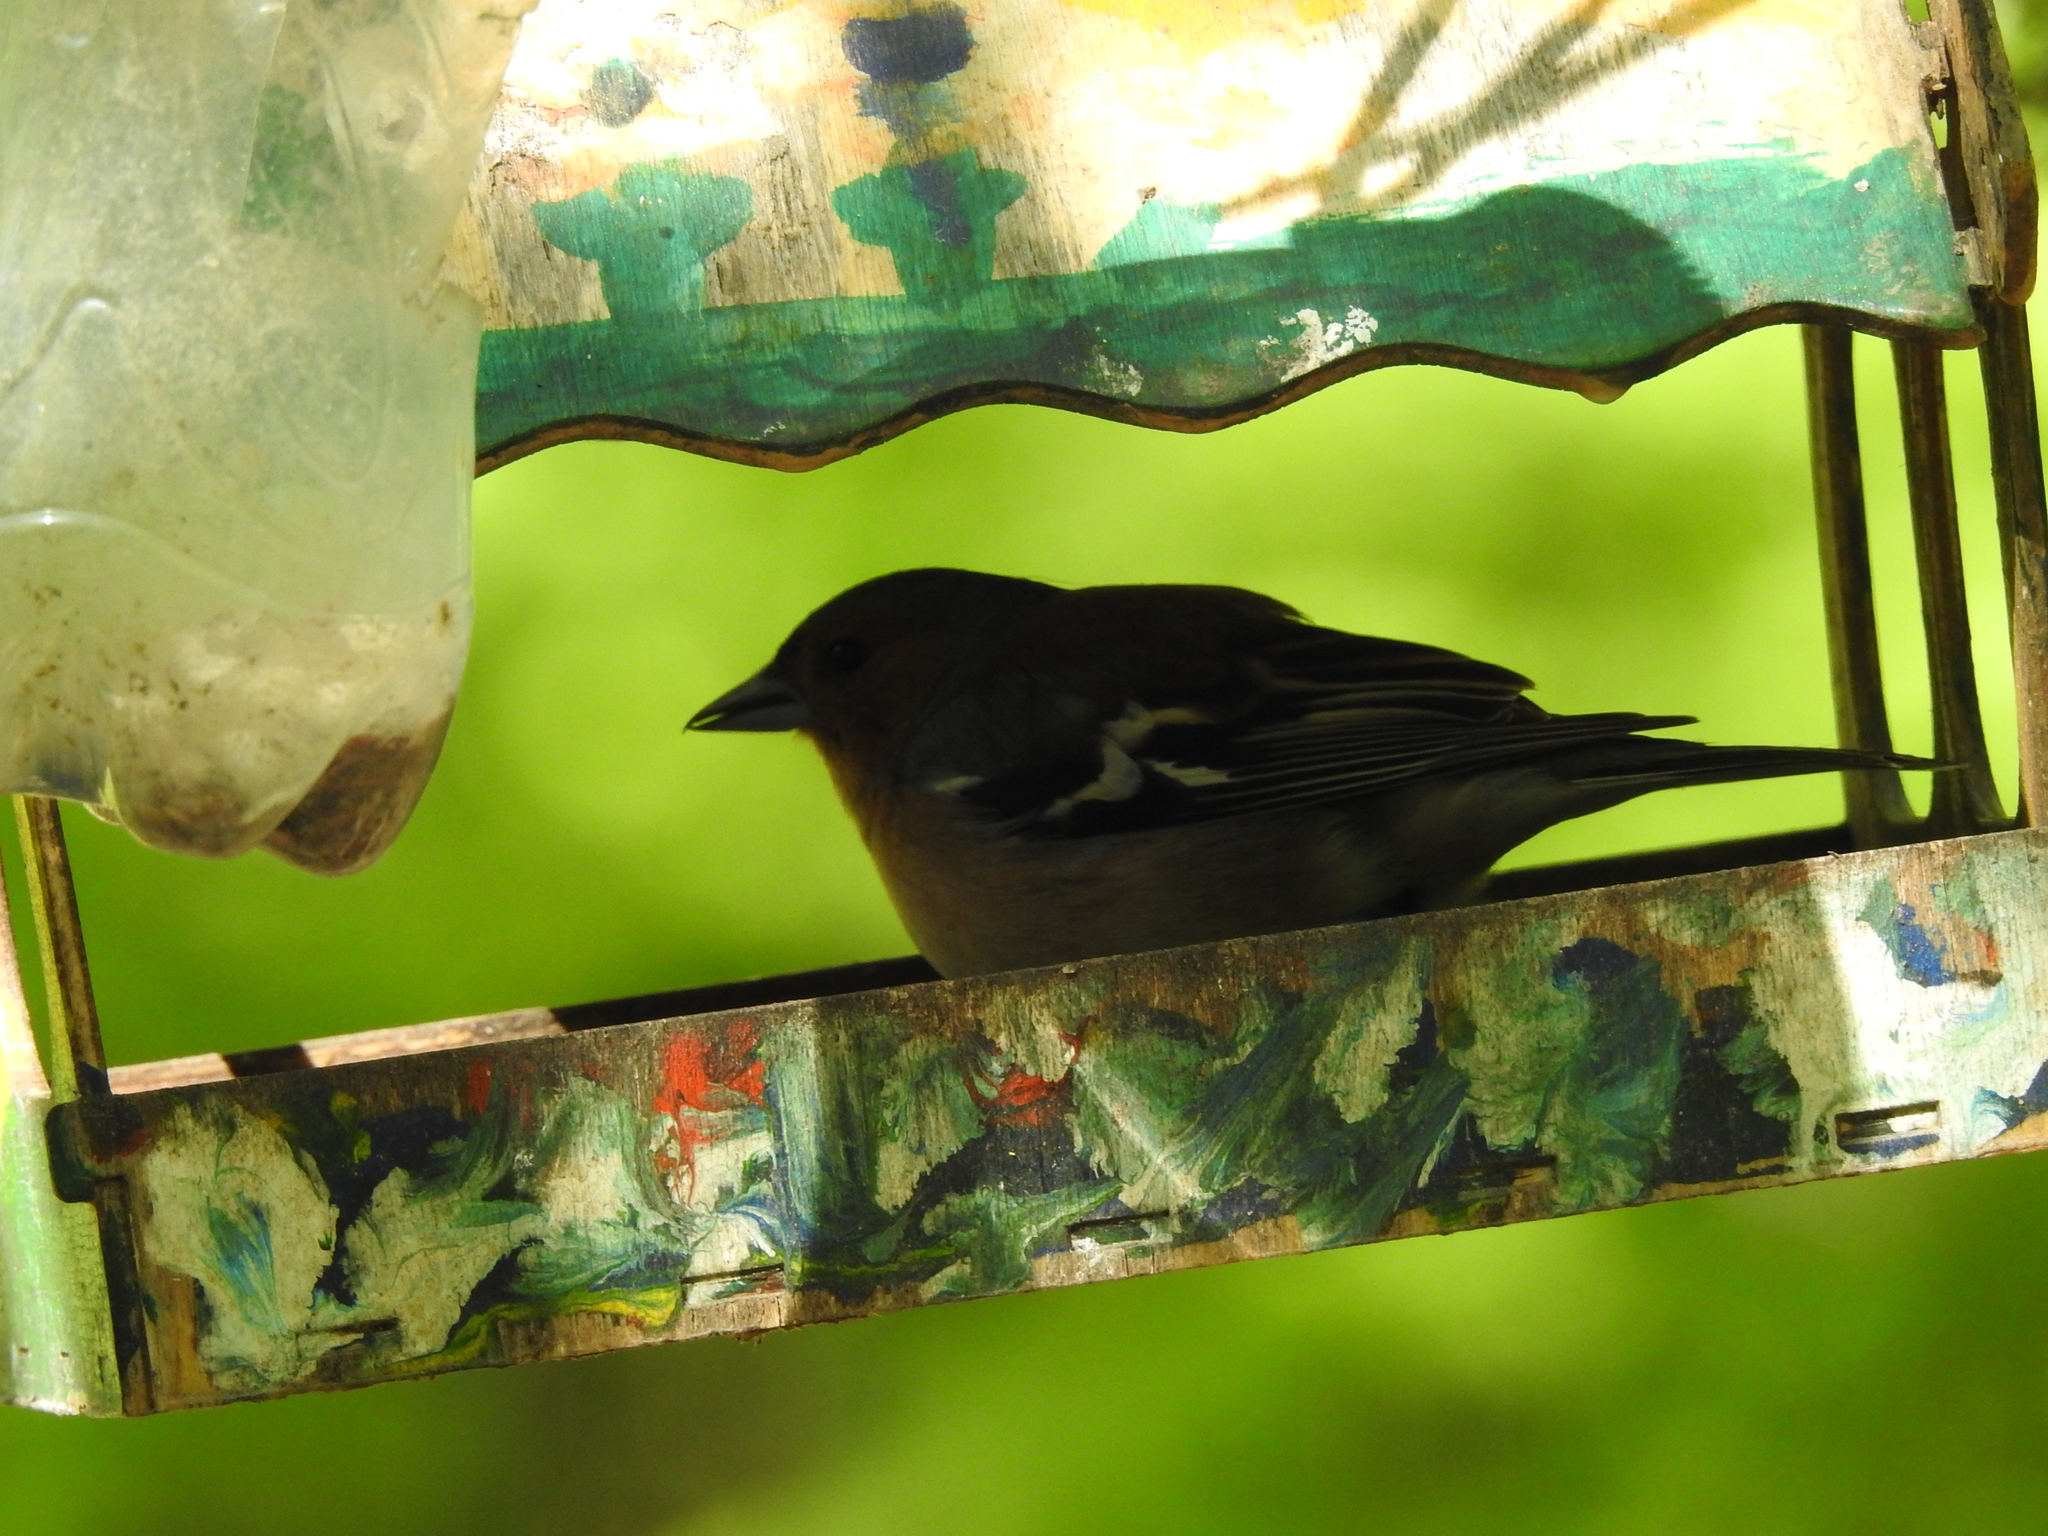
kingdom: Animalia
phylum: Chordata
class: Aves
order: Passeriformes
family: Fringillidae
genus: Fringilla
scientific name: Fringilla coelebs
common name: Common chaffinch
